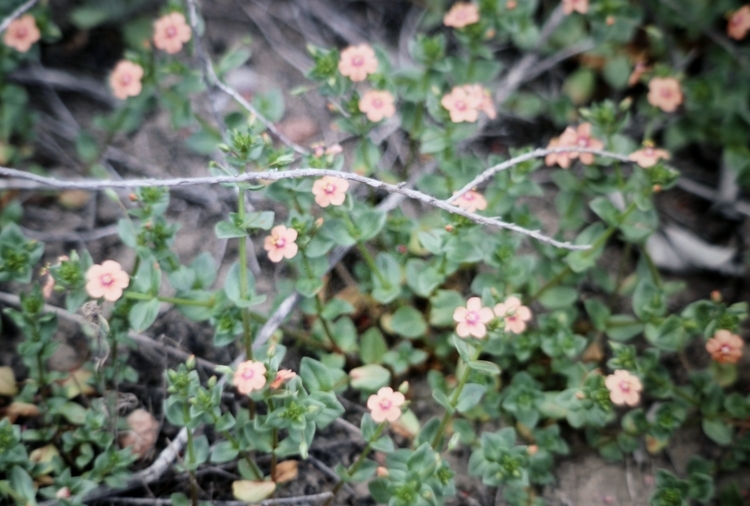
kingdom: Plantae
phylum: Tracheophyta
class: Magnoliopsida
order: Ericales
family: Primulaceae
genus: Lysimachia
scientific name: Lysimachia arvensis
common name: Scarlet pimpernel
